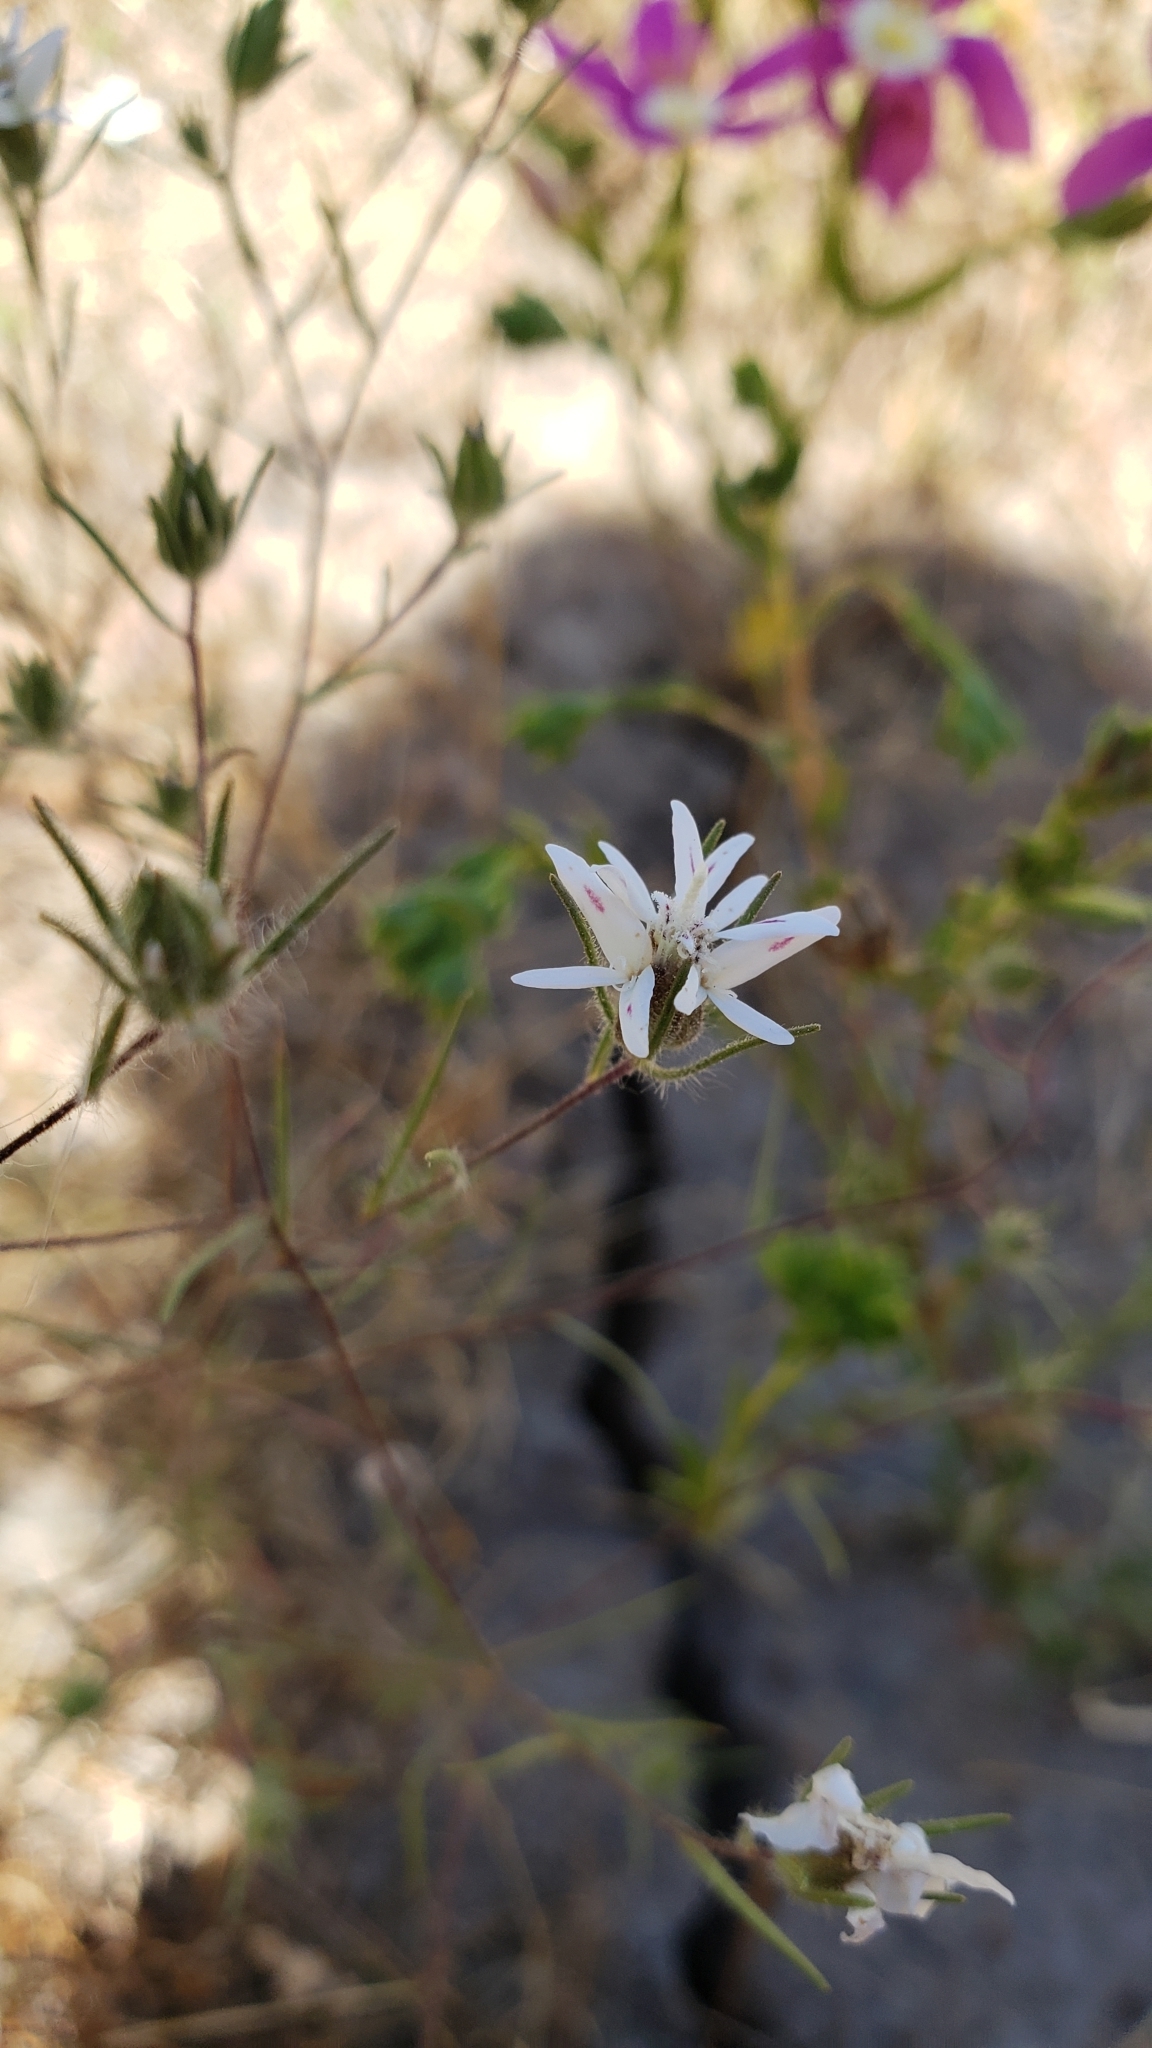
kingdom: Plantae
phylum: Tracheophyta
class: Magnoliopsida
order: Asterales
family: Asteraceae
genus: Osmadenia
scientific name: Osmadenia tenella
